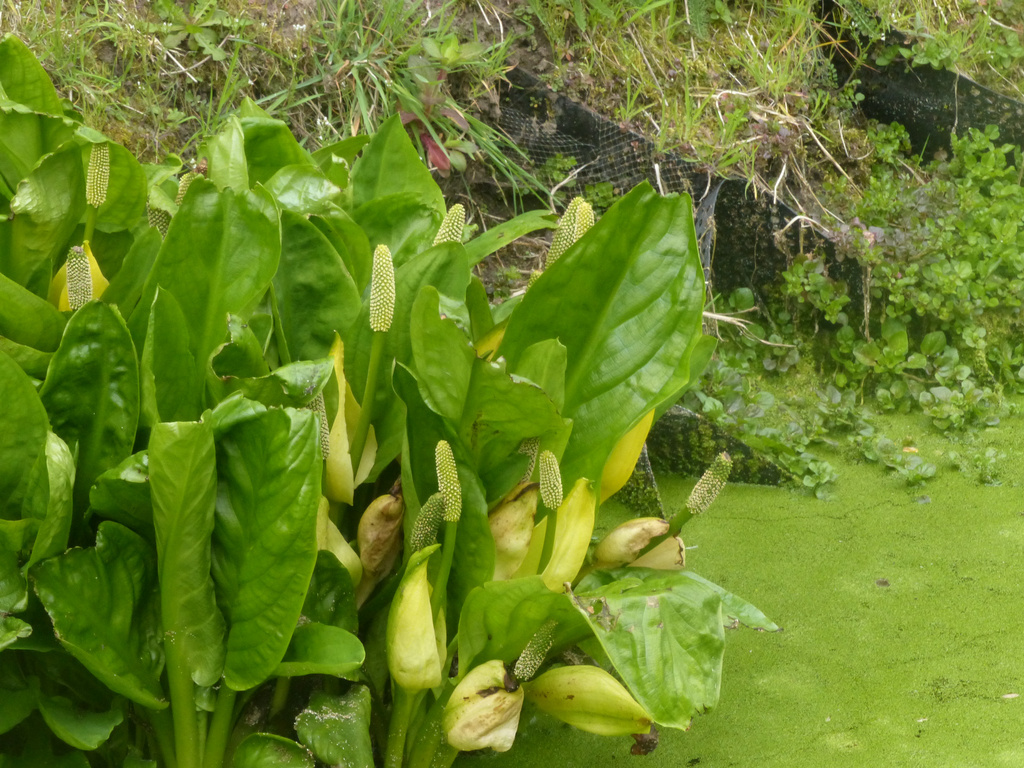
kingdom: Plantae
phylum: Tracheophyta
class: Liliopsida
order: Alismatales
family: Araceae
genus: Lysichiton
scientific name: Lysichiton americanus
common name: American skunk cabbage
